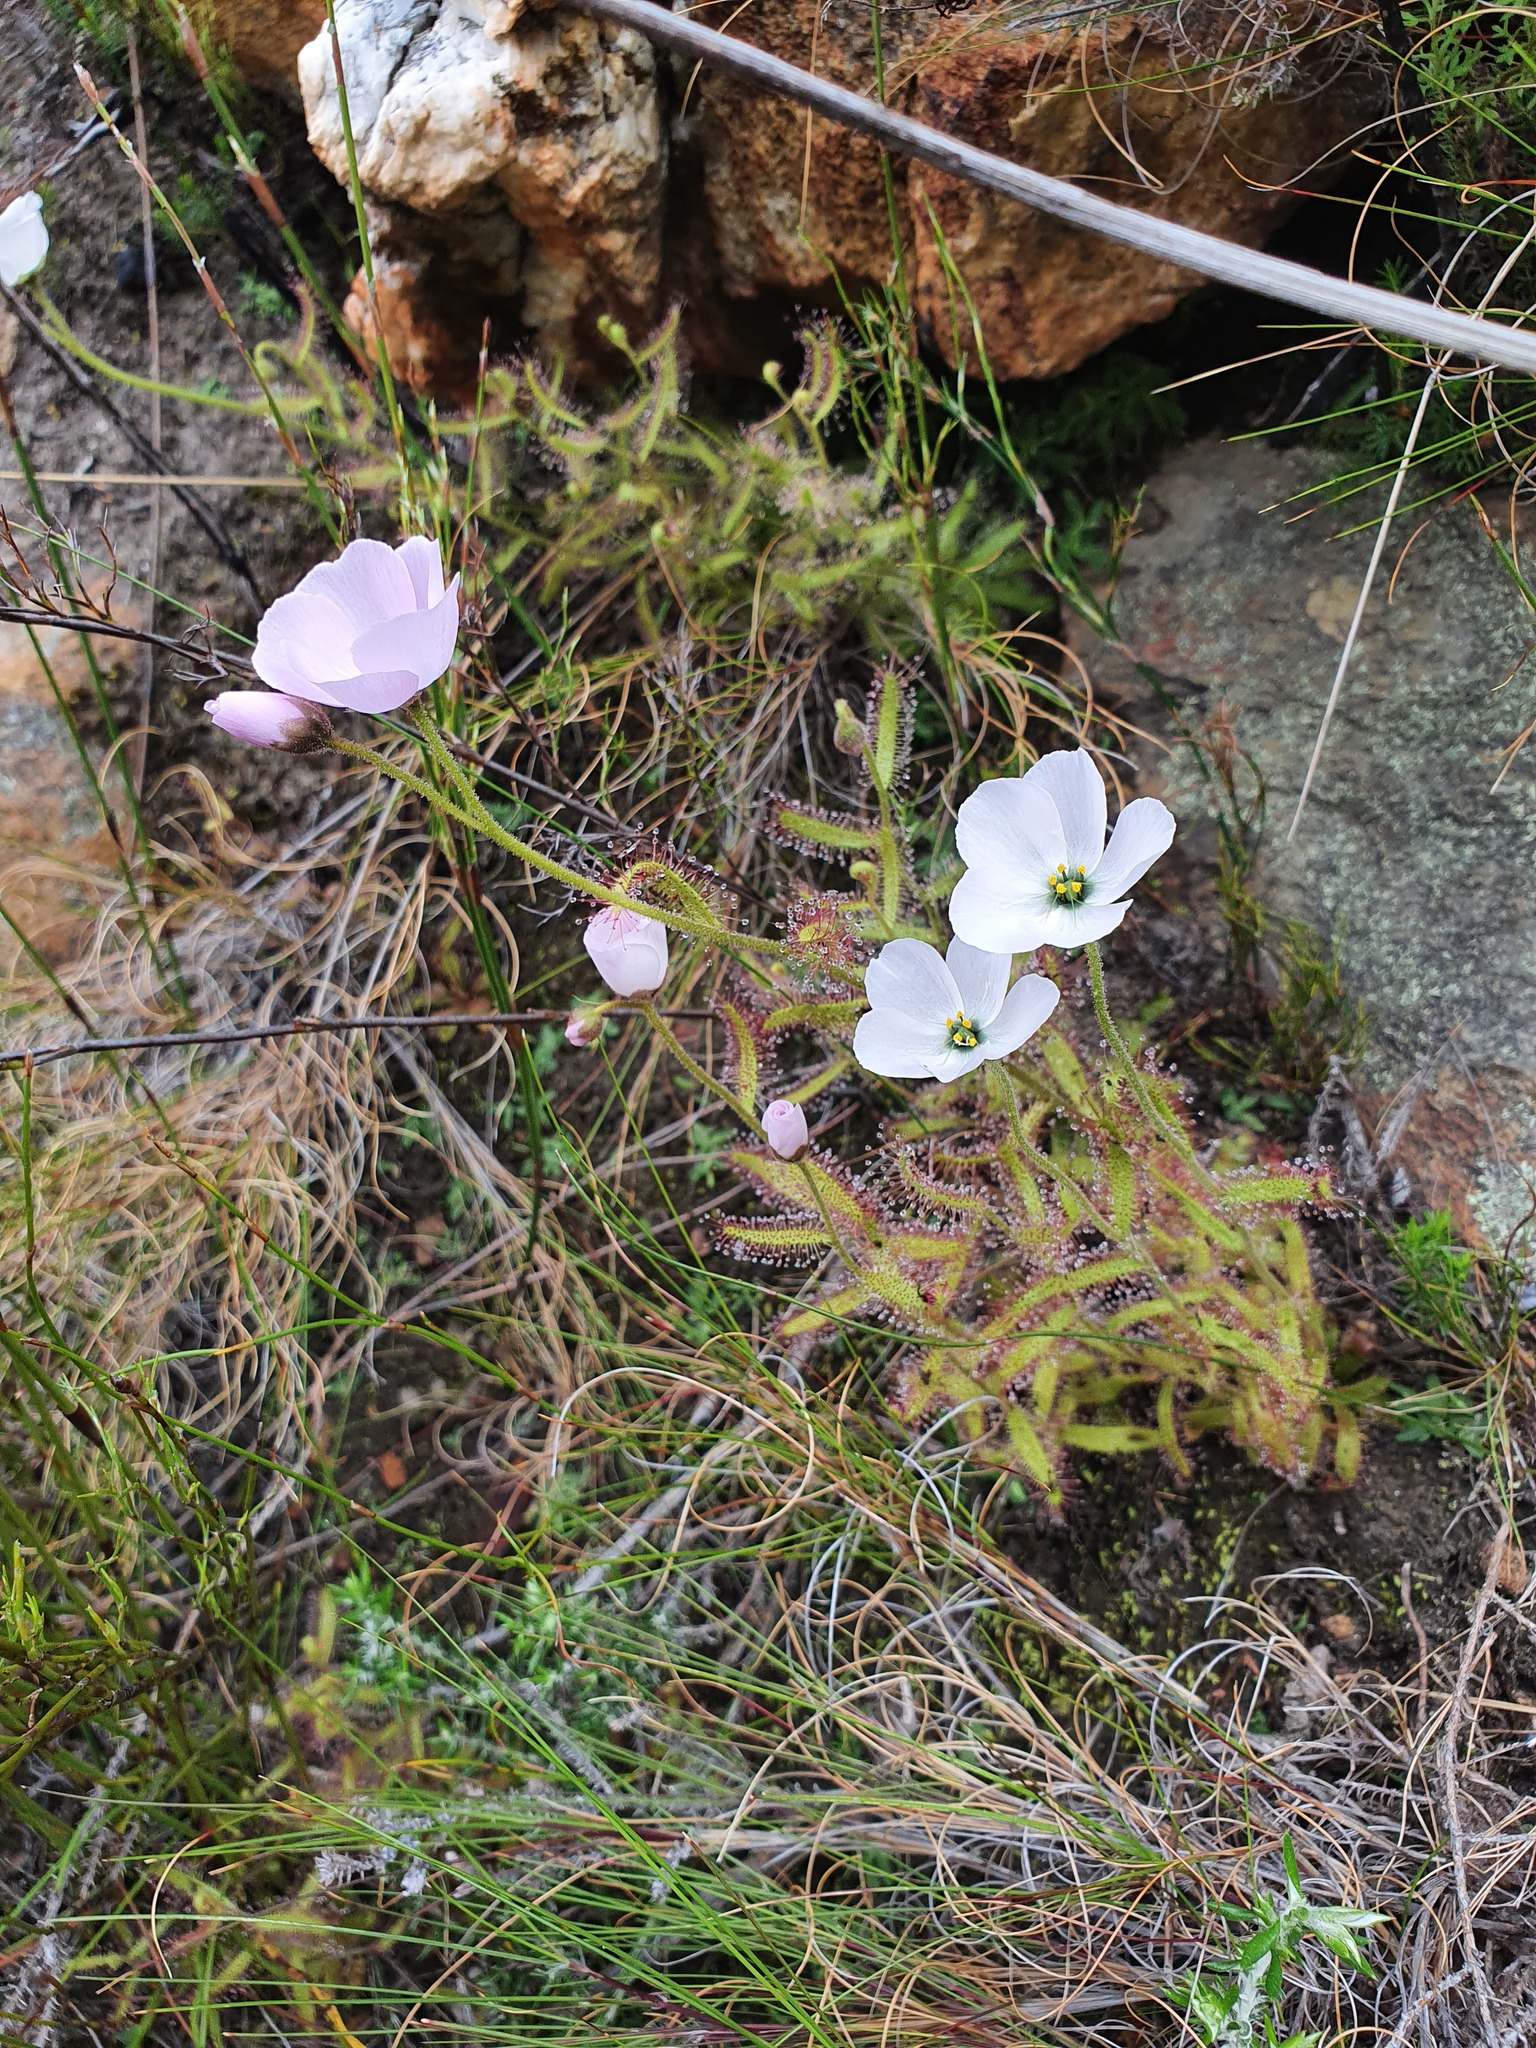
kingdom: Plantae
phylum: Tracheophyta
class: Magnoliopsida
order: Caryophyllales
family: Droseraceae
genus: Drosera
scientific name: Drosera cistiflora
